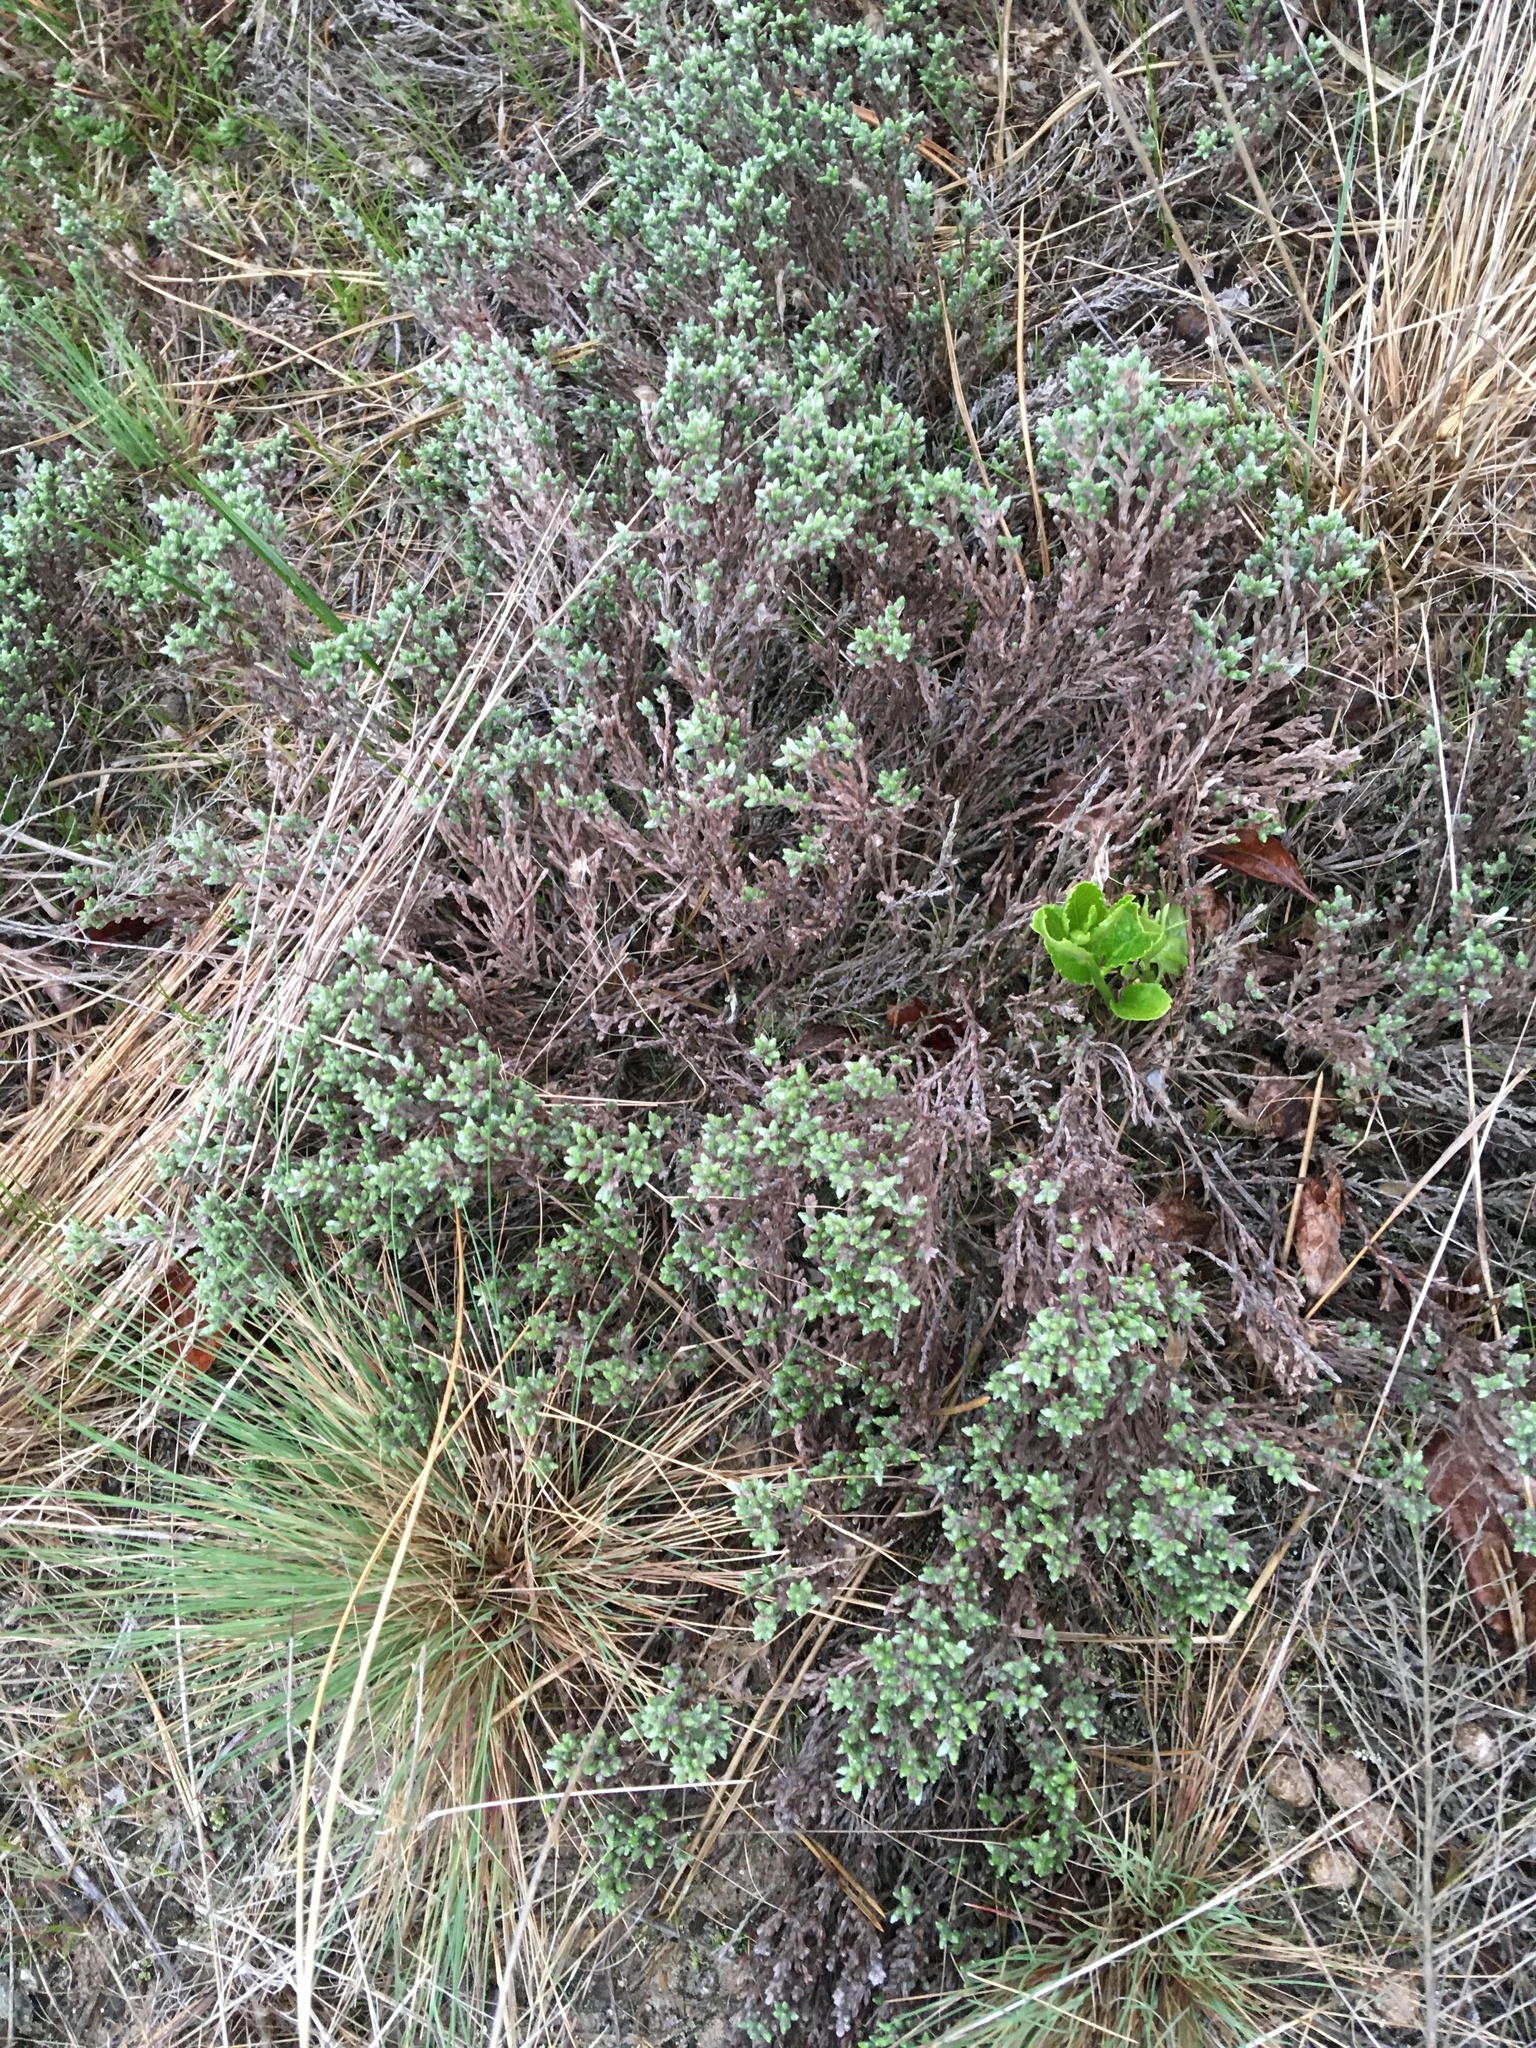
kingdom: Plantae
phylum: Tracheophyta
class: Magnoliopsida
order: Malvales
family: Cistaceae
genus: Hudsonia
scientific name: Hudsonia tomentosa
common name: Beach-heath
